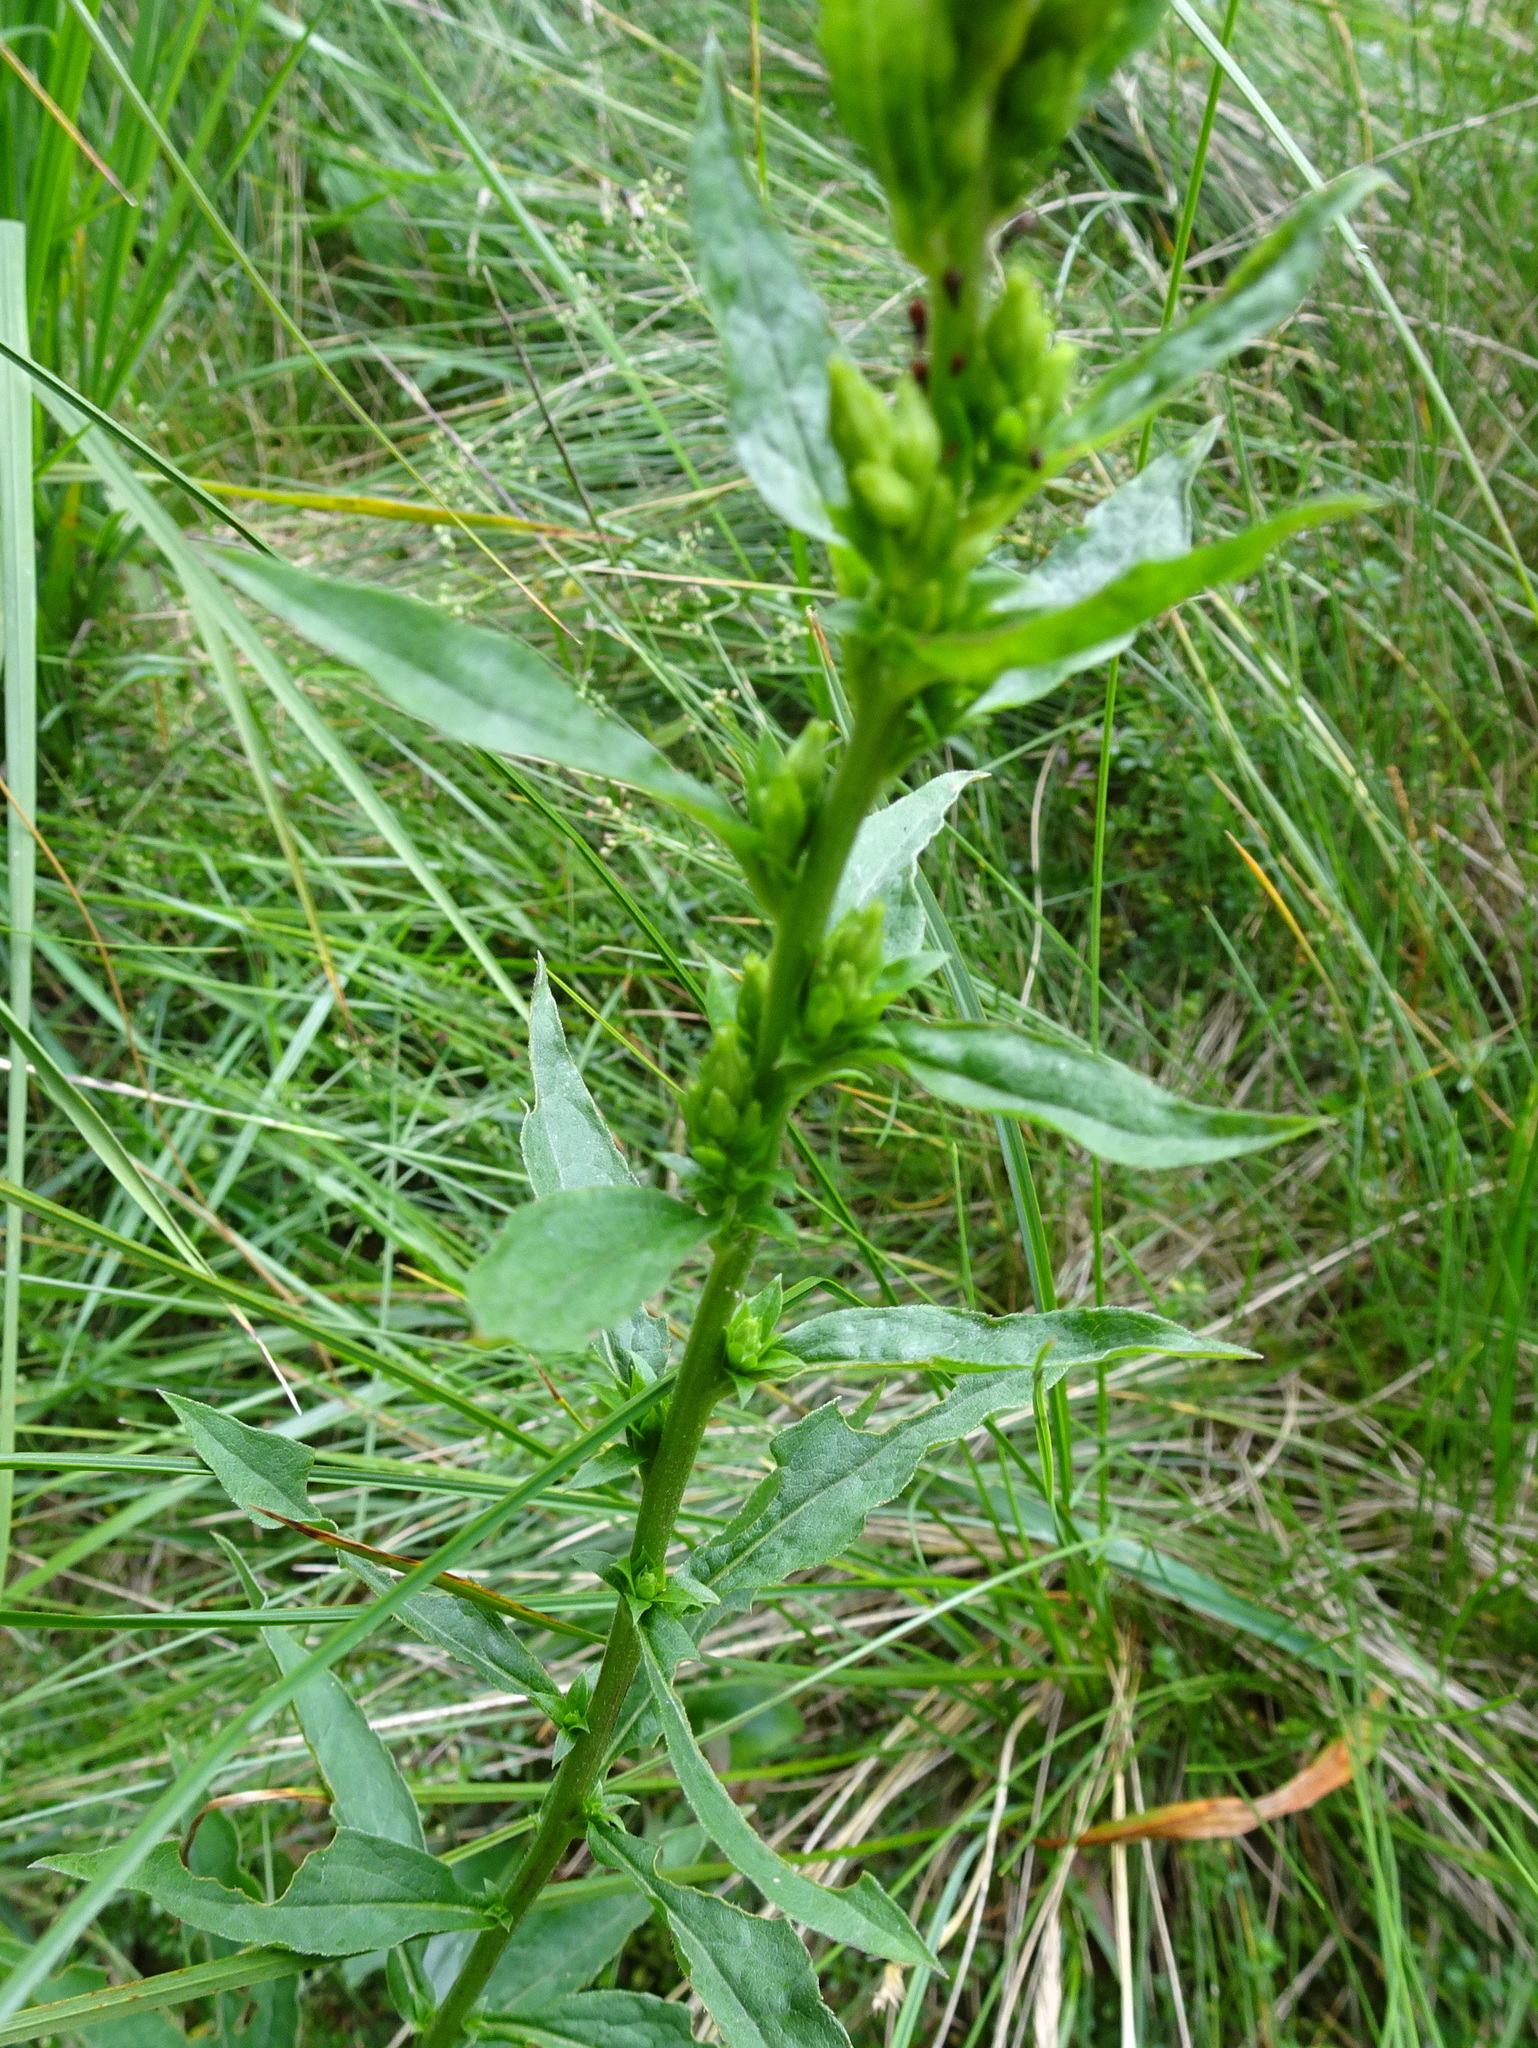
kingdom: Plantae
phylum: Tracheophyta
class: Magnoliopsida
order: Asterales
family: Asteraceae
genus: Solidago
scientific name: Solidago virgaurea
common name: Goldenrod
